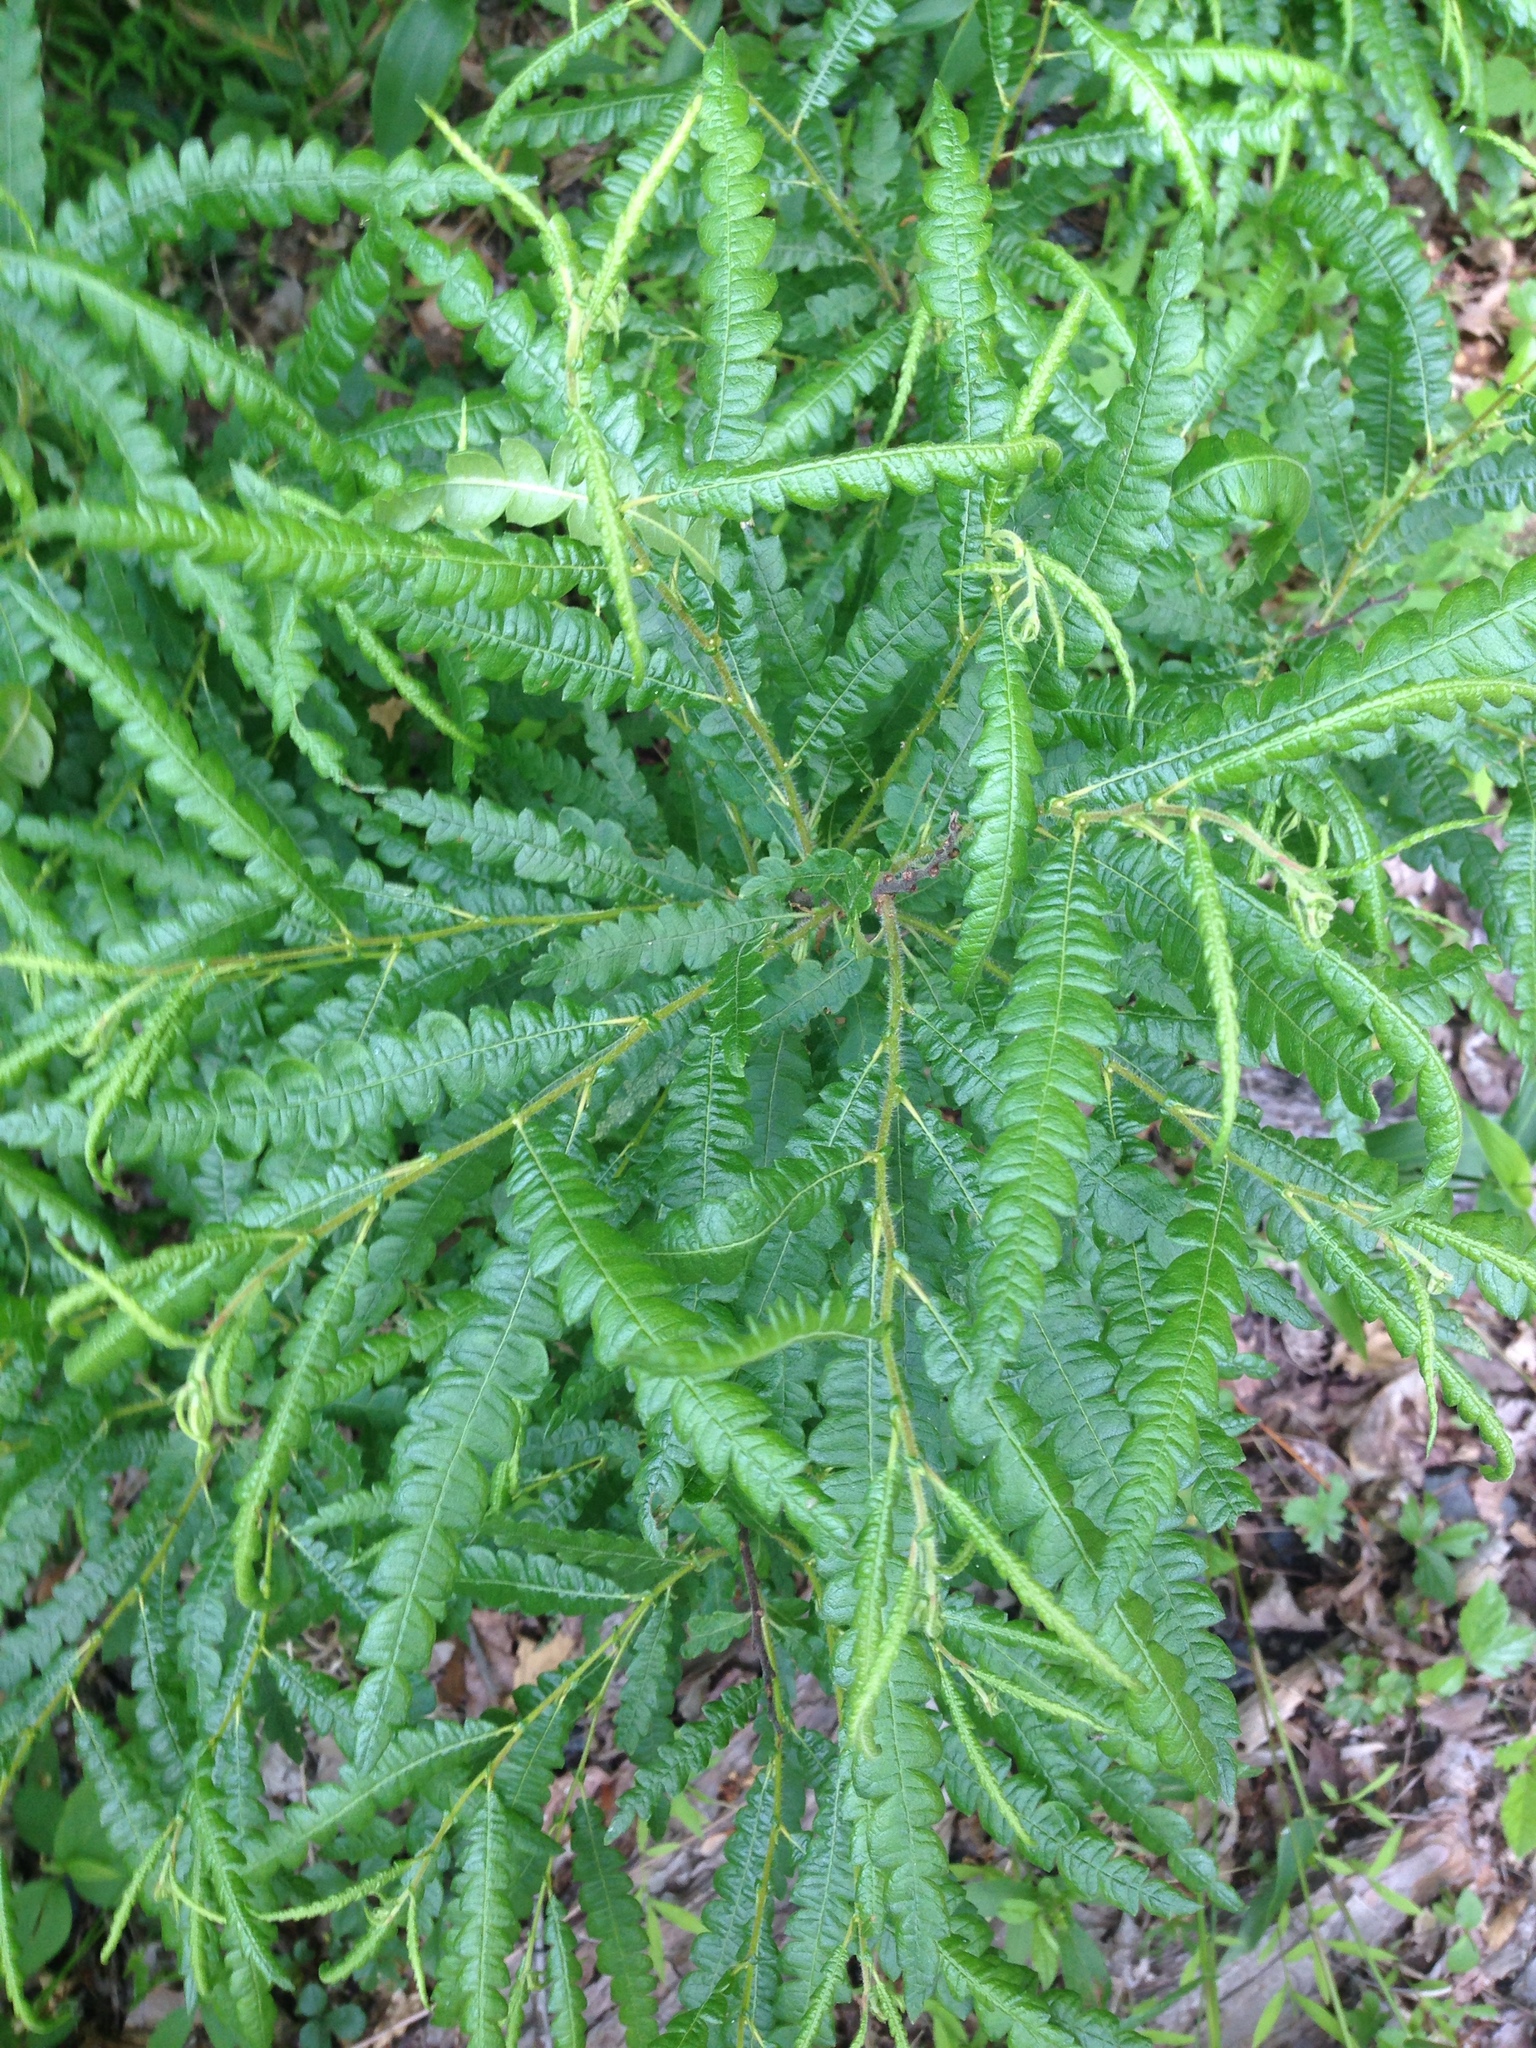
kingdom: Plantae
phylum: Tracheophyta
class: Magnoliopsida
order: Fagales
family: Myricaceae
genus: Comptonia
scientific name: Comptonia peregrina
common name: Sweet-fern
